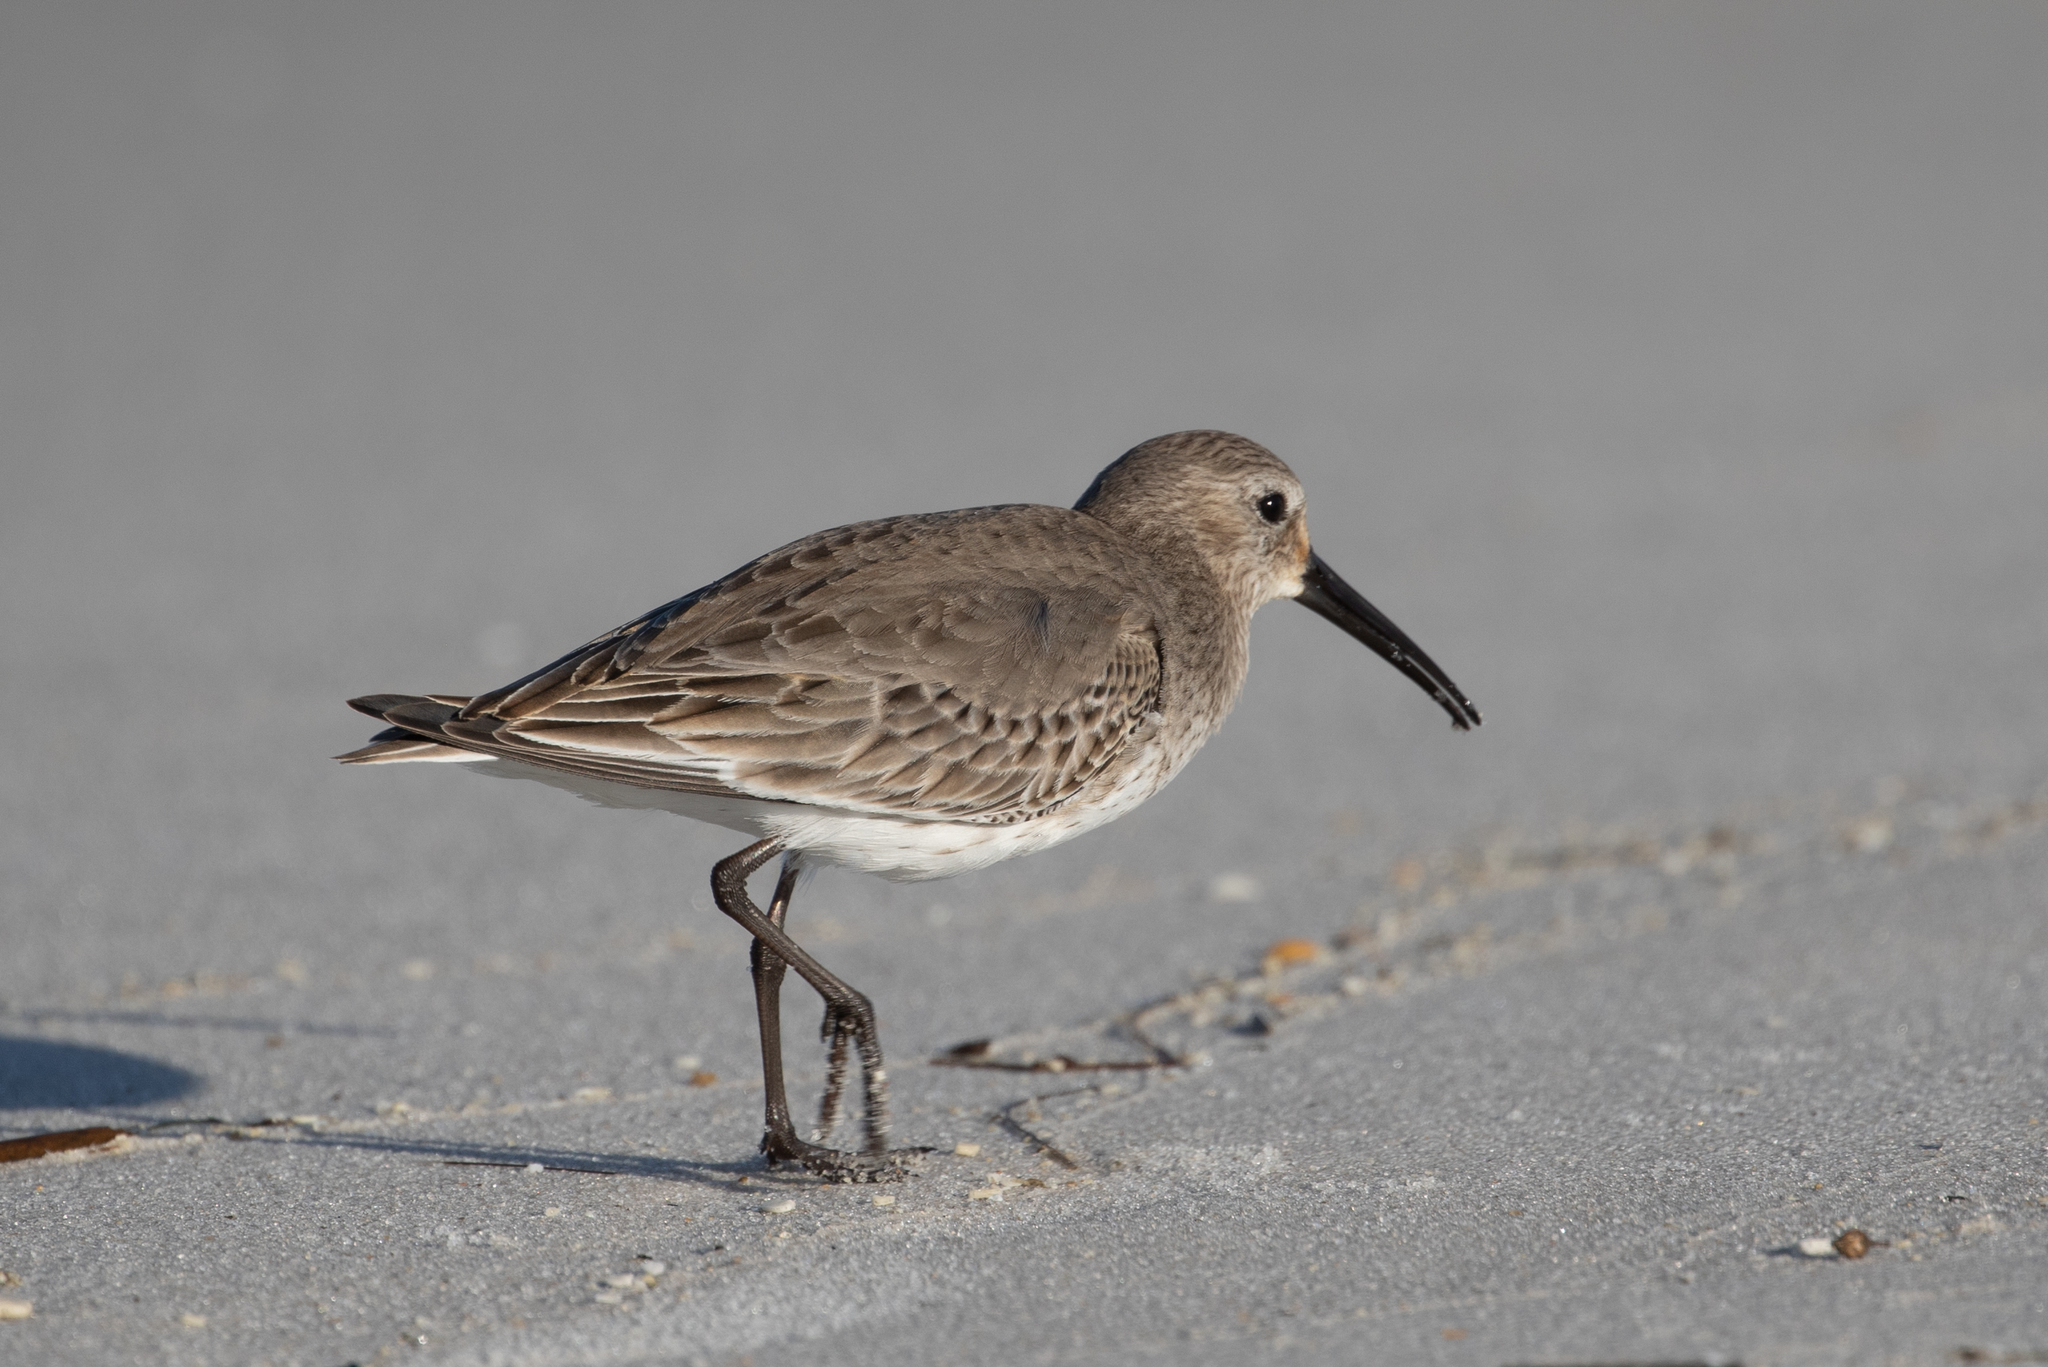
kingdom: Animalia
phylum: Chordata
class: Aves
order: Charadriiformes
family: Scolopacidae
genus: Calidris
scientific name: Calidris alpina
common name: Dunlin
